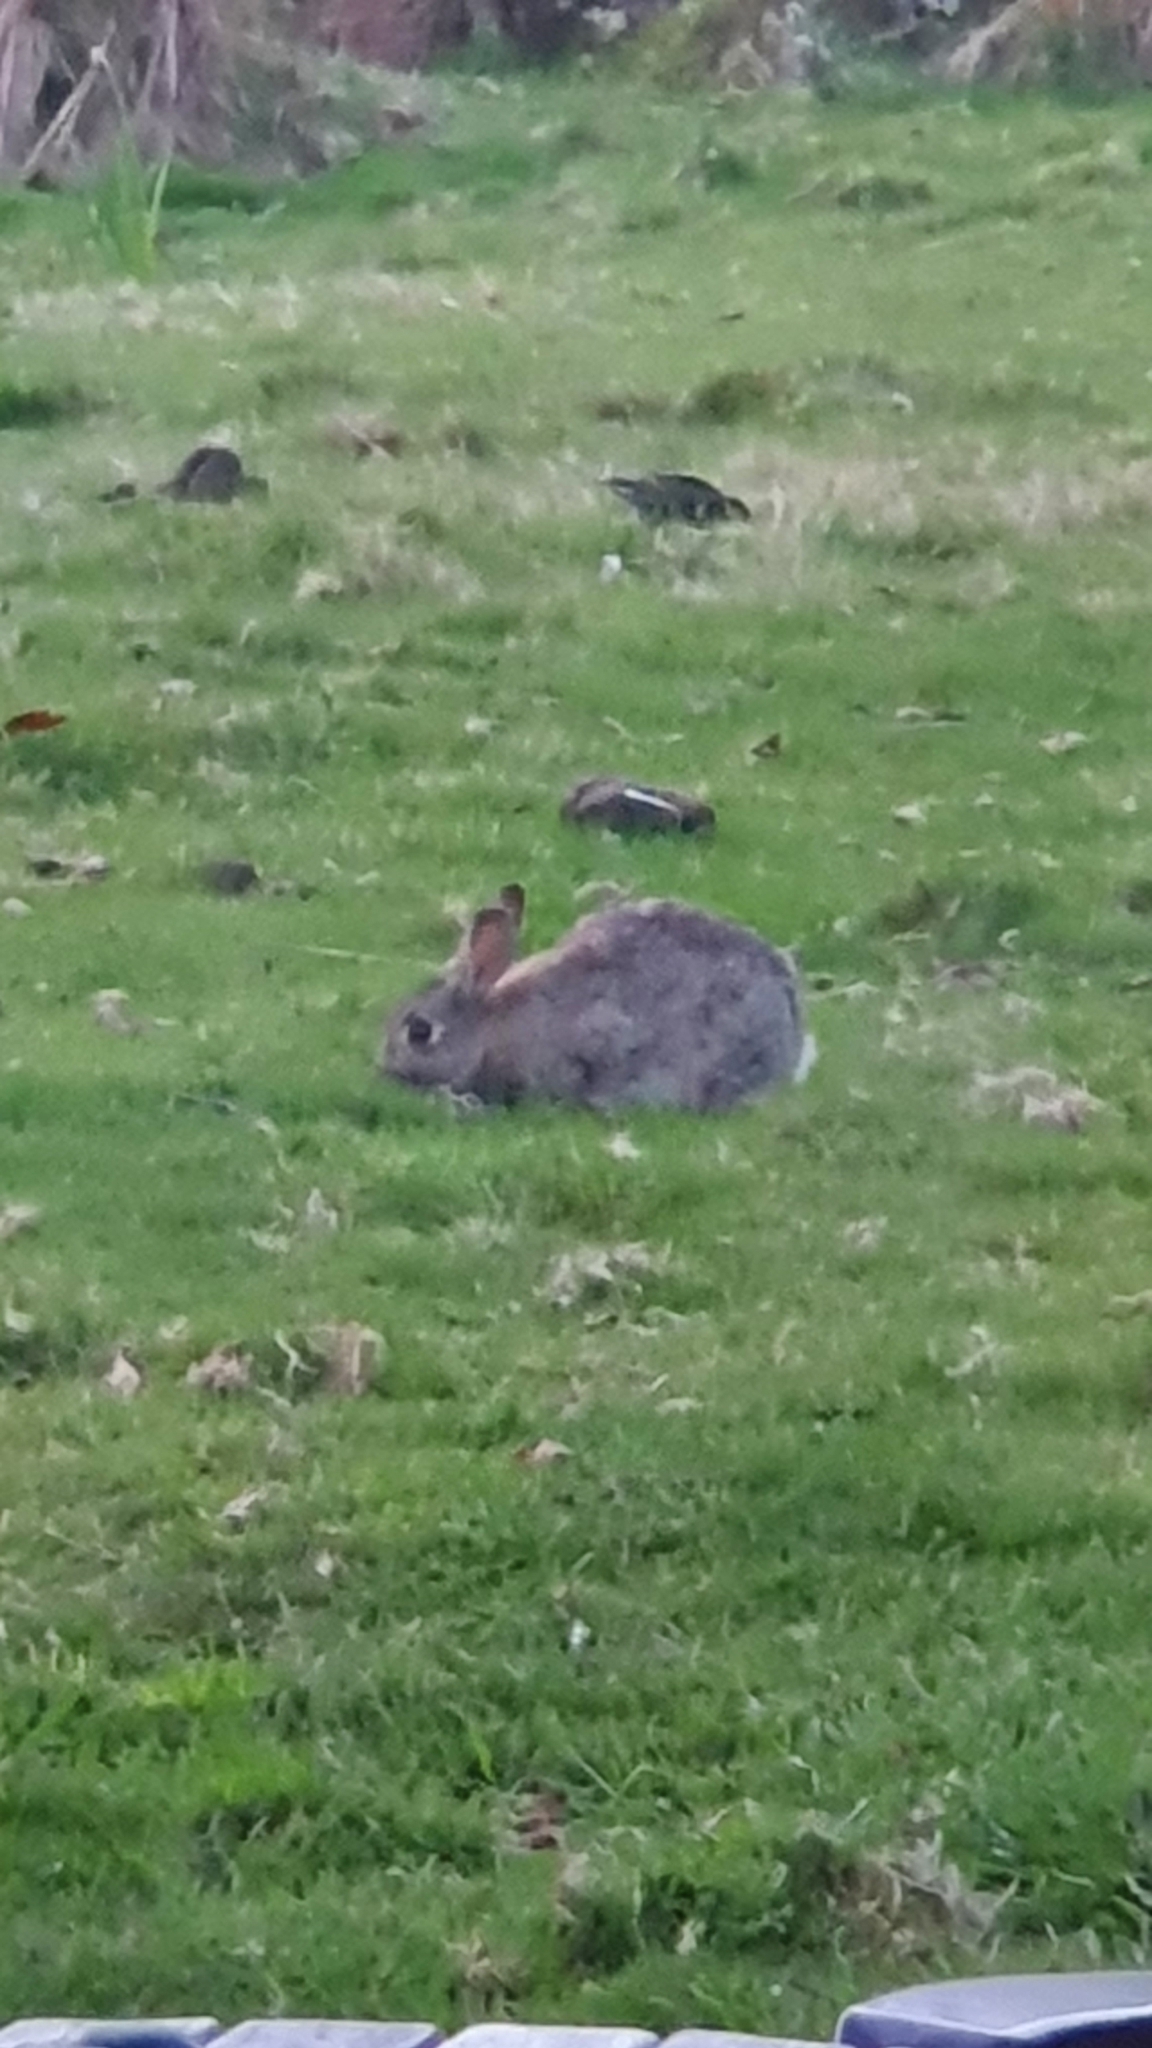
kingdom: Animalia
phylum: Chordata
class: Mammalia
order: Lagomorpha
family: Leporidae
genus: Oryctolagus
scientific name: Oryctolagus cuniculus
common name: European rabbit
